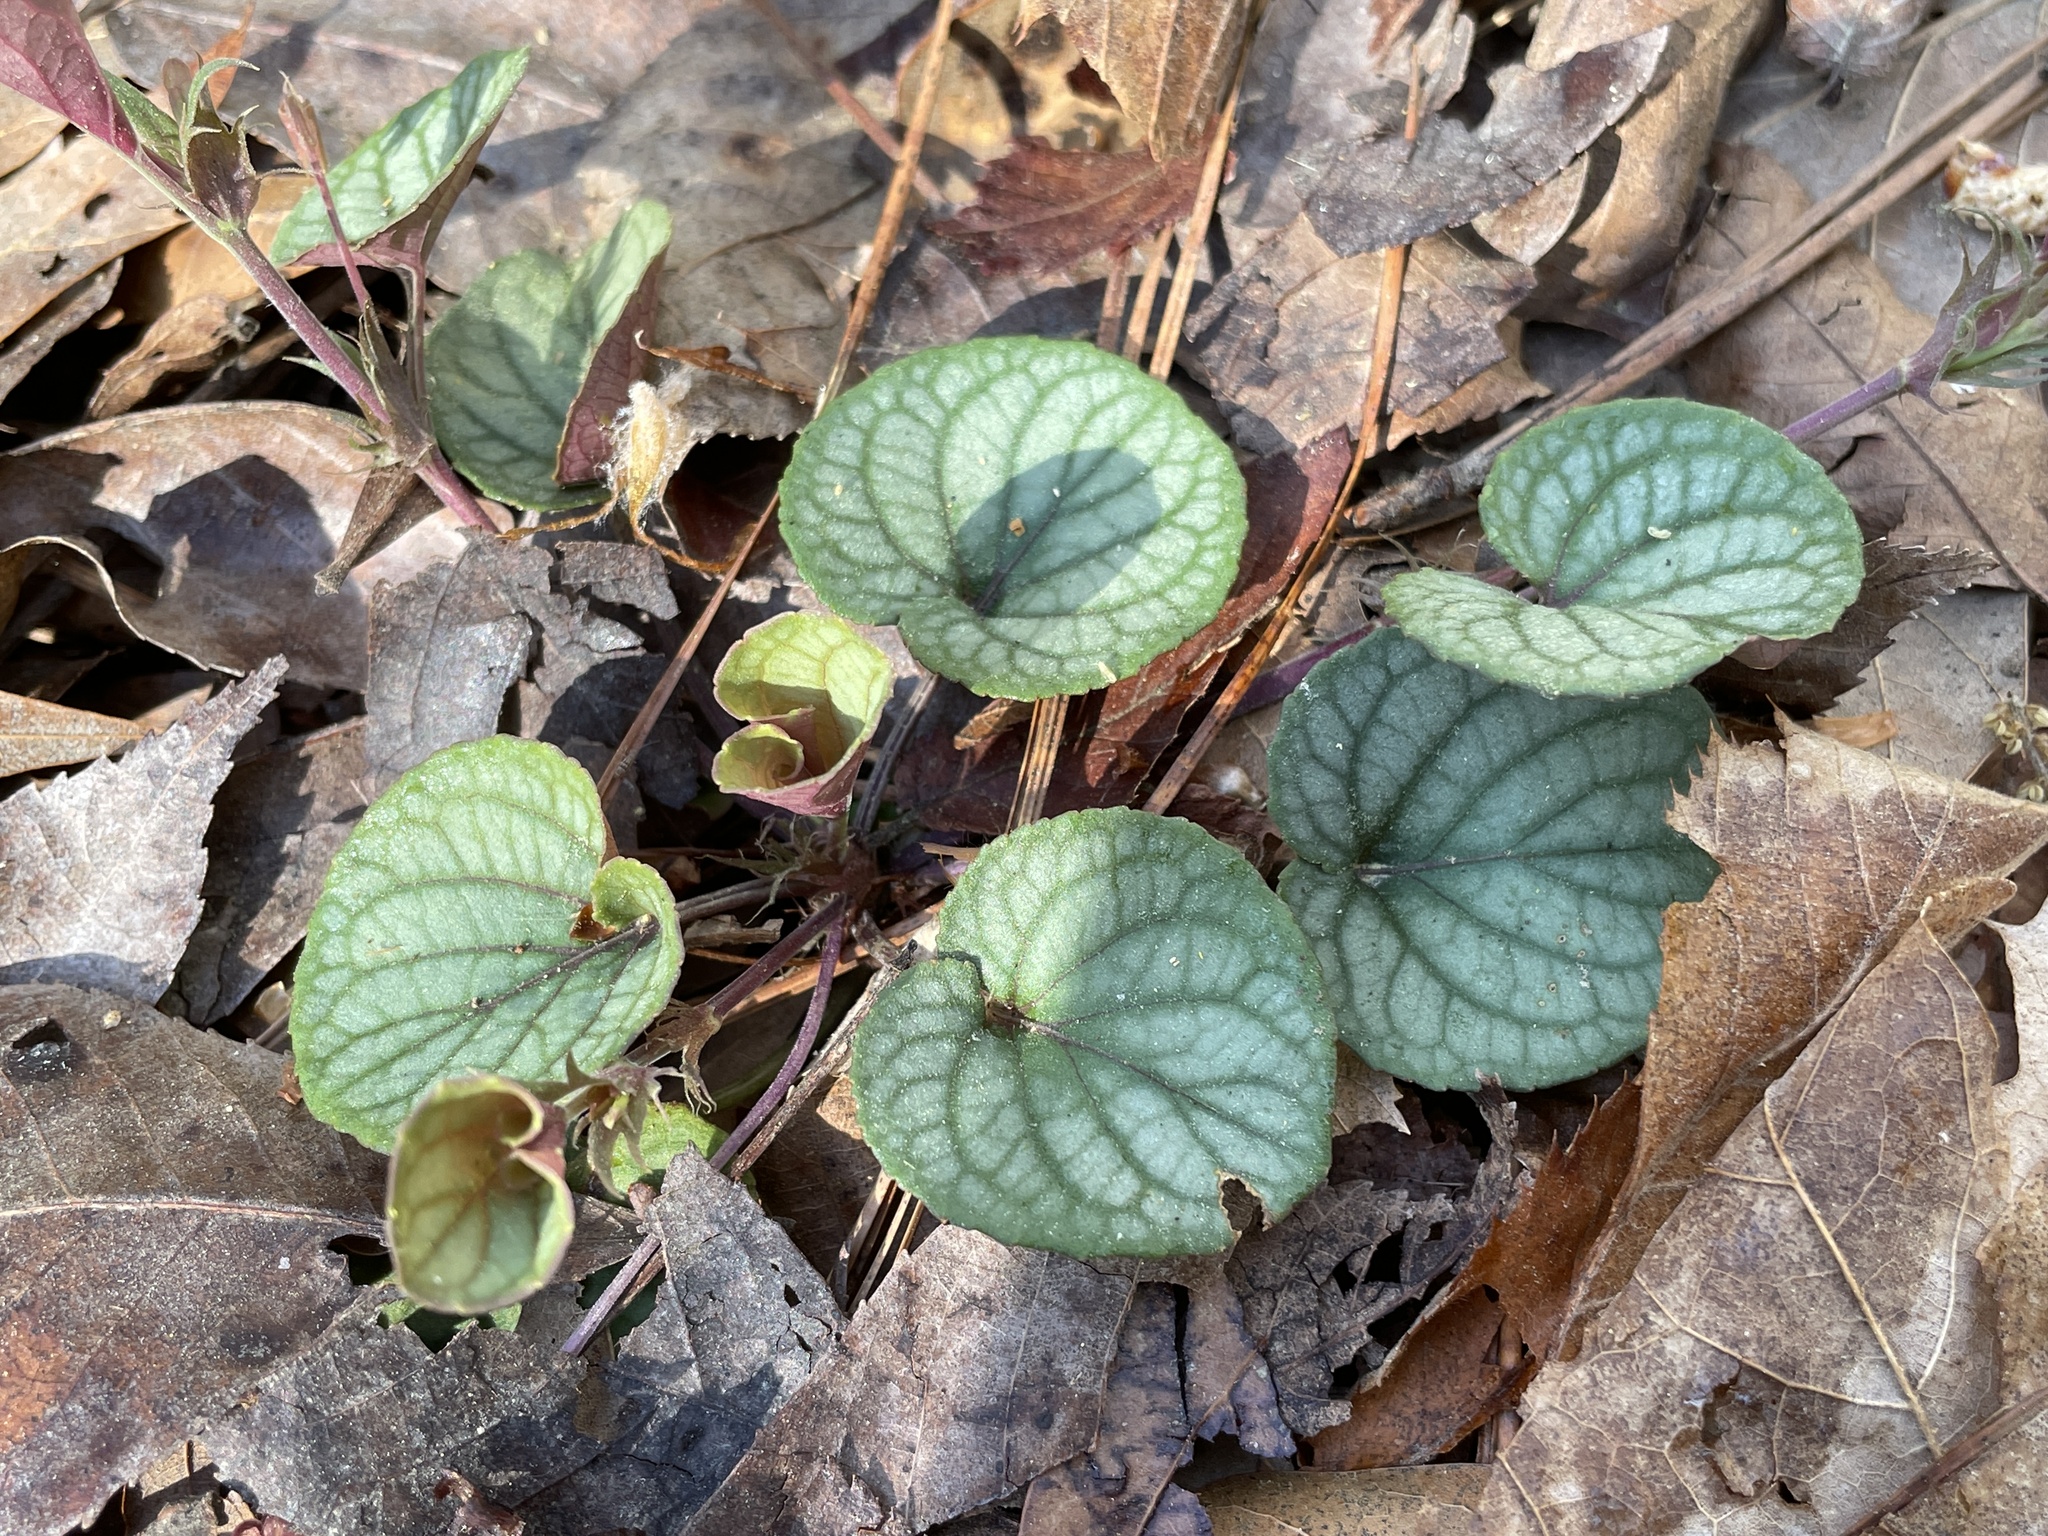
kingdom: Plantae
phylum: Tracheophyta
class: Magnoliopsida
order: Malpighiales
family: Violaceae
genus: Viola
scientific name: Viola walteri
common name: Prostrate southern violet
